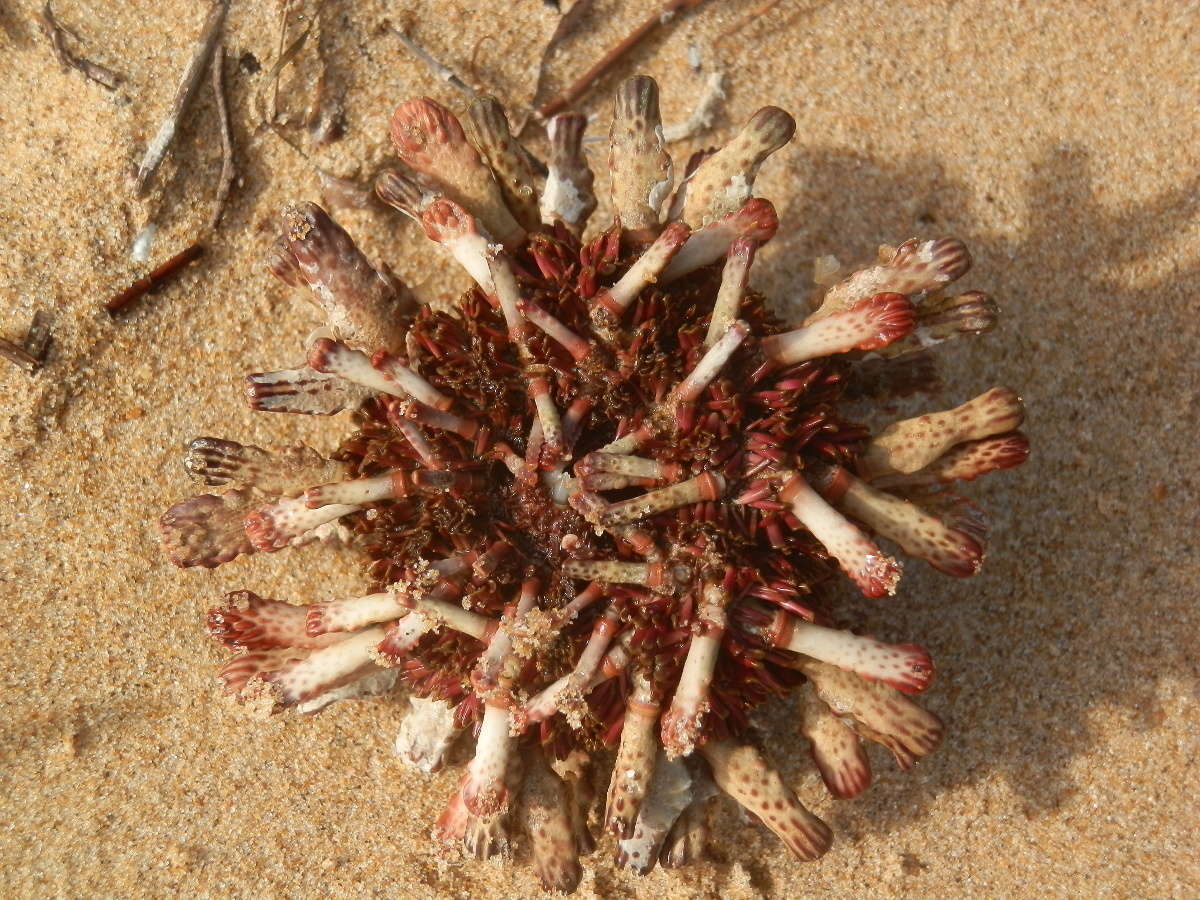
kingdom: Animalia
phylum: Echinodermata
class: Echinoidea
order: Cidaroida
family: Cidaridae
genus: Goniocidaris
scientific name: Goniocidaris tubaria
